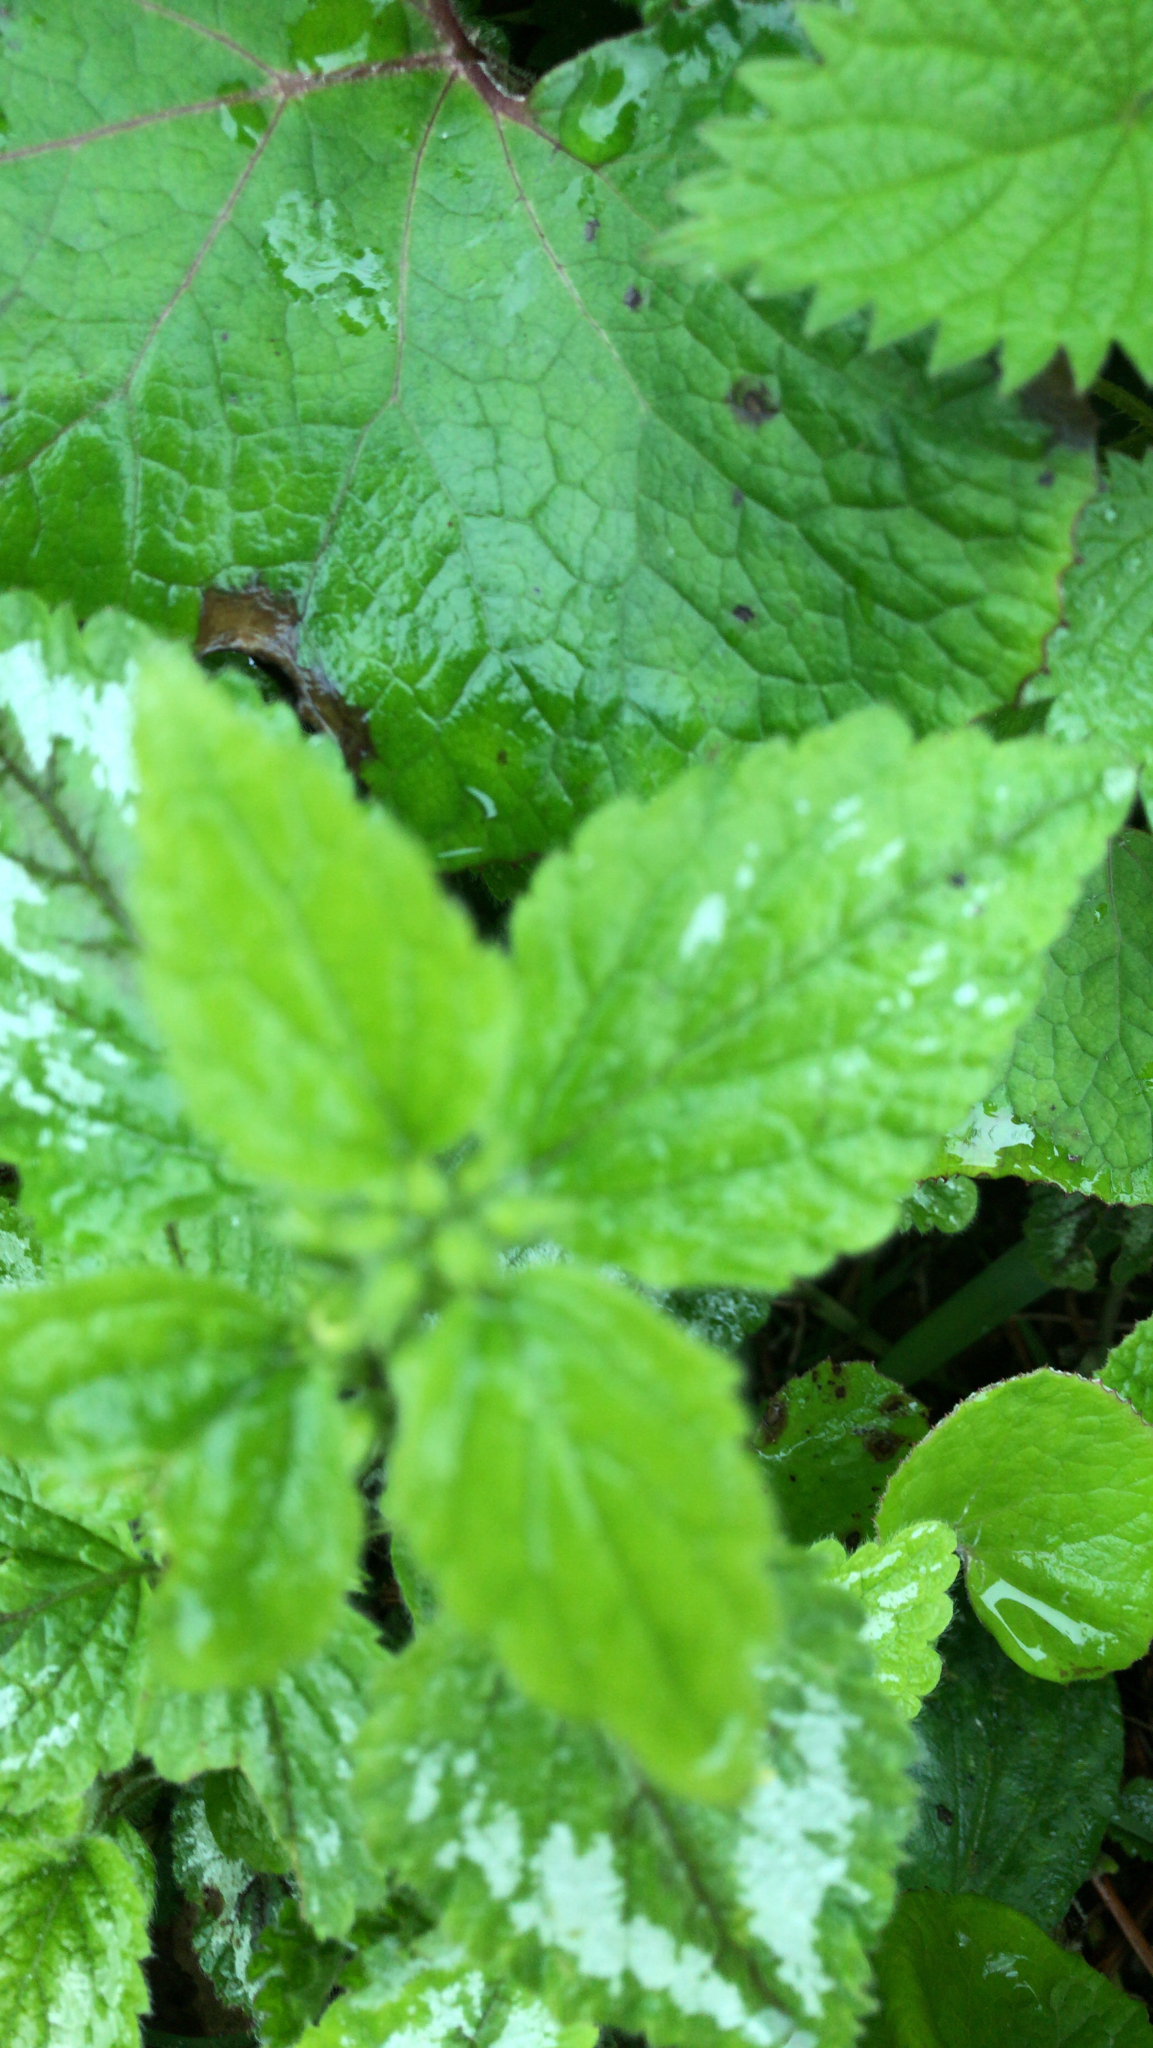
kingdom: Plantae
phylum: Tracheophyta
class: Magnoliopsida
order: Lamiales
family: Lamiaceae
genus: Lamium
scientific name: Lamium galeobdolon
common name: Yellow archangel
